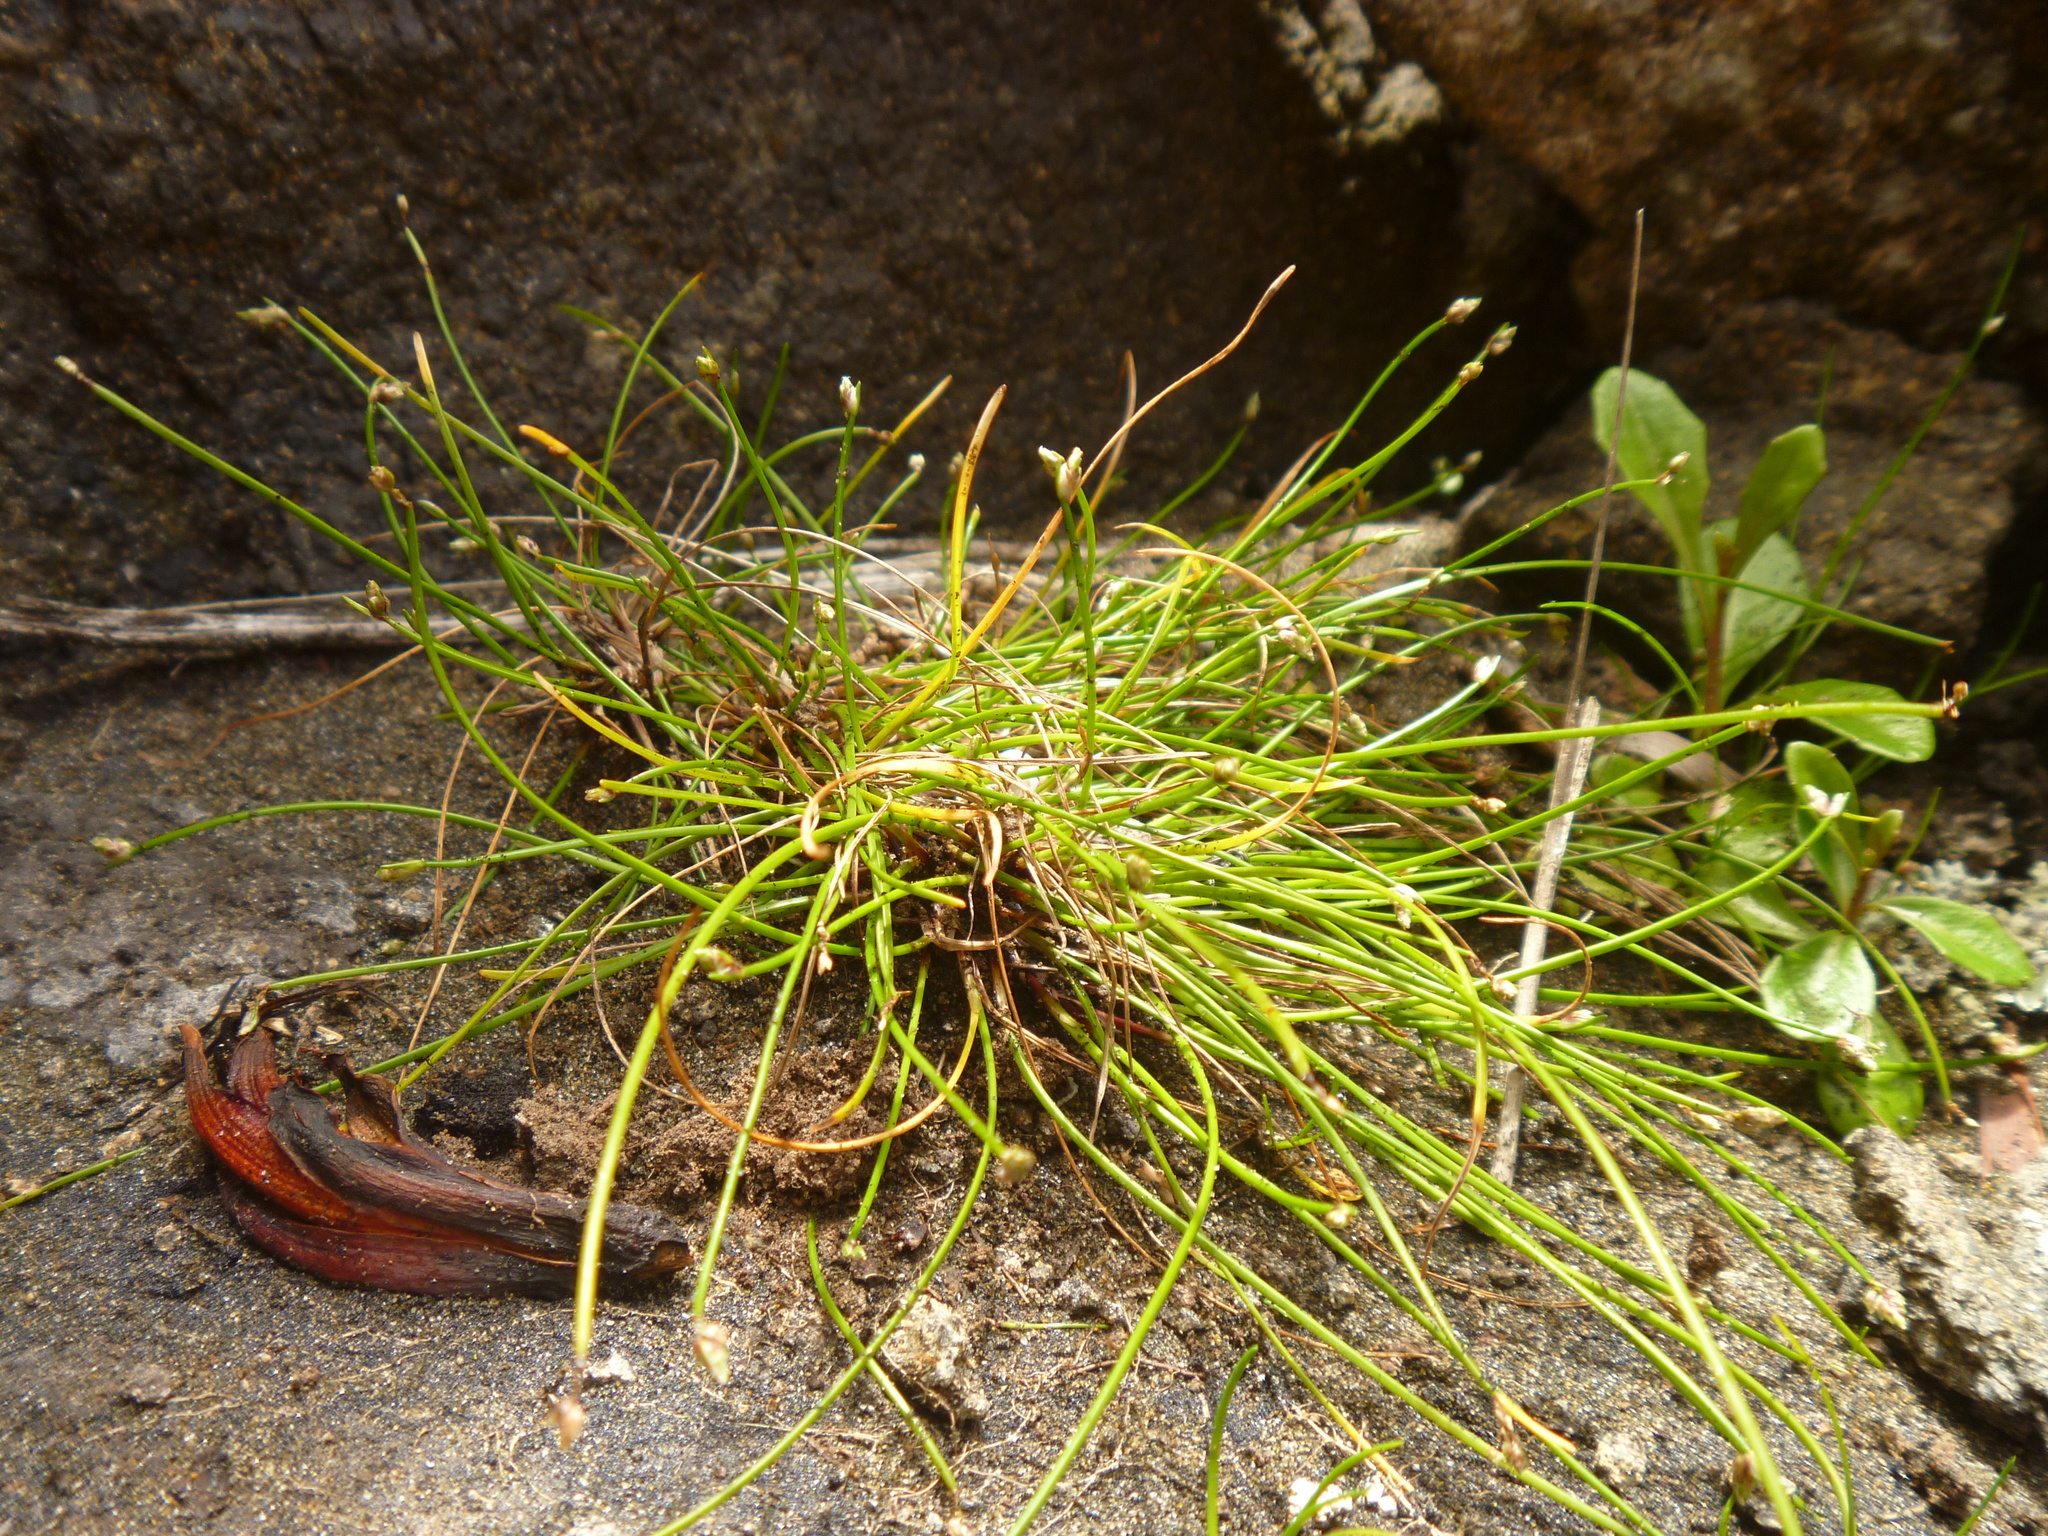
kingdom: Plantae
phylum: Tracheophyta
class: Liliopsida
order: Poales
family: Cyperaceae
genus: Isolepis
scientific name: Isolepis cernua
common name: Slender club-rush
